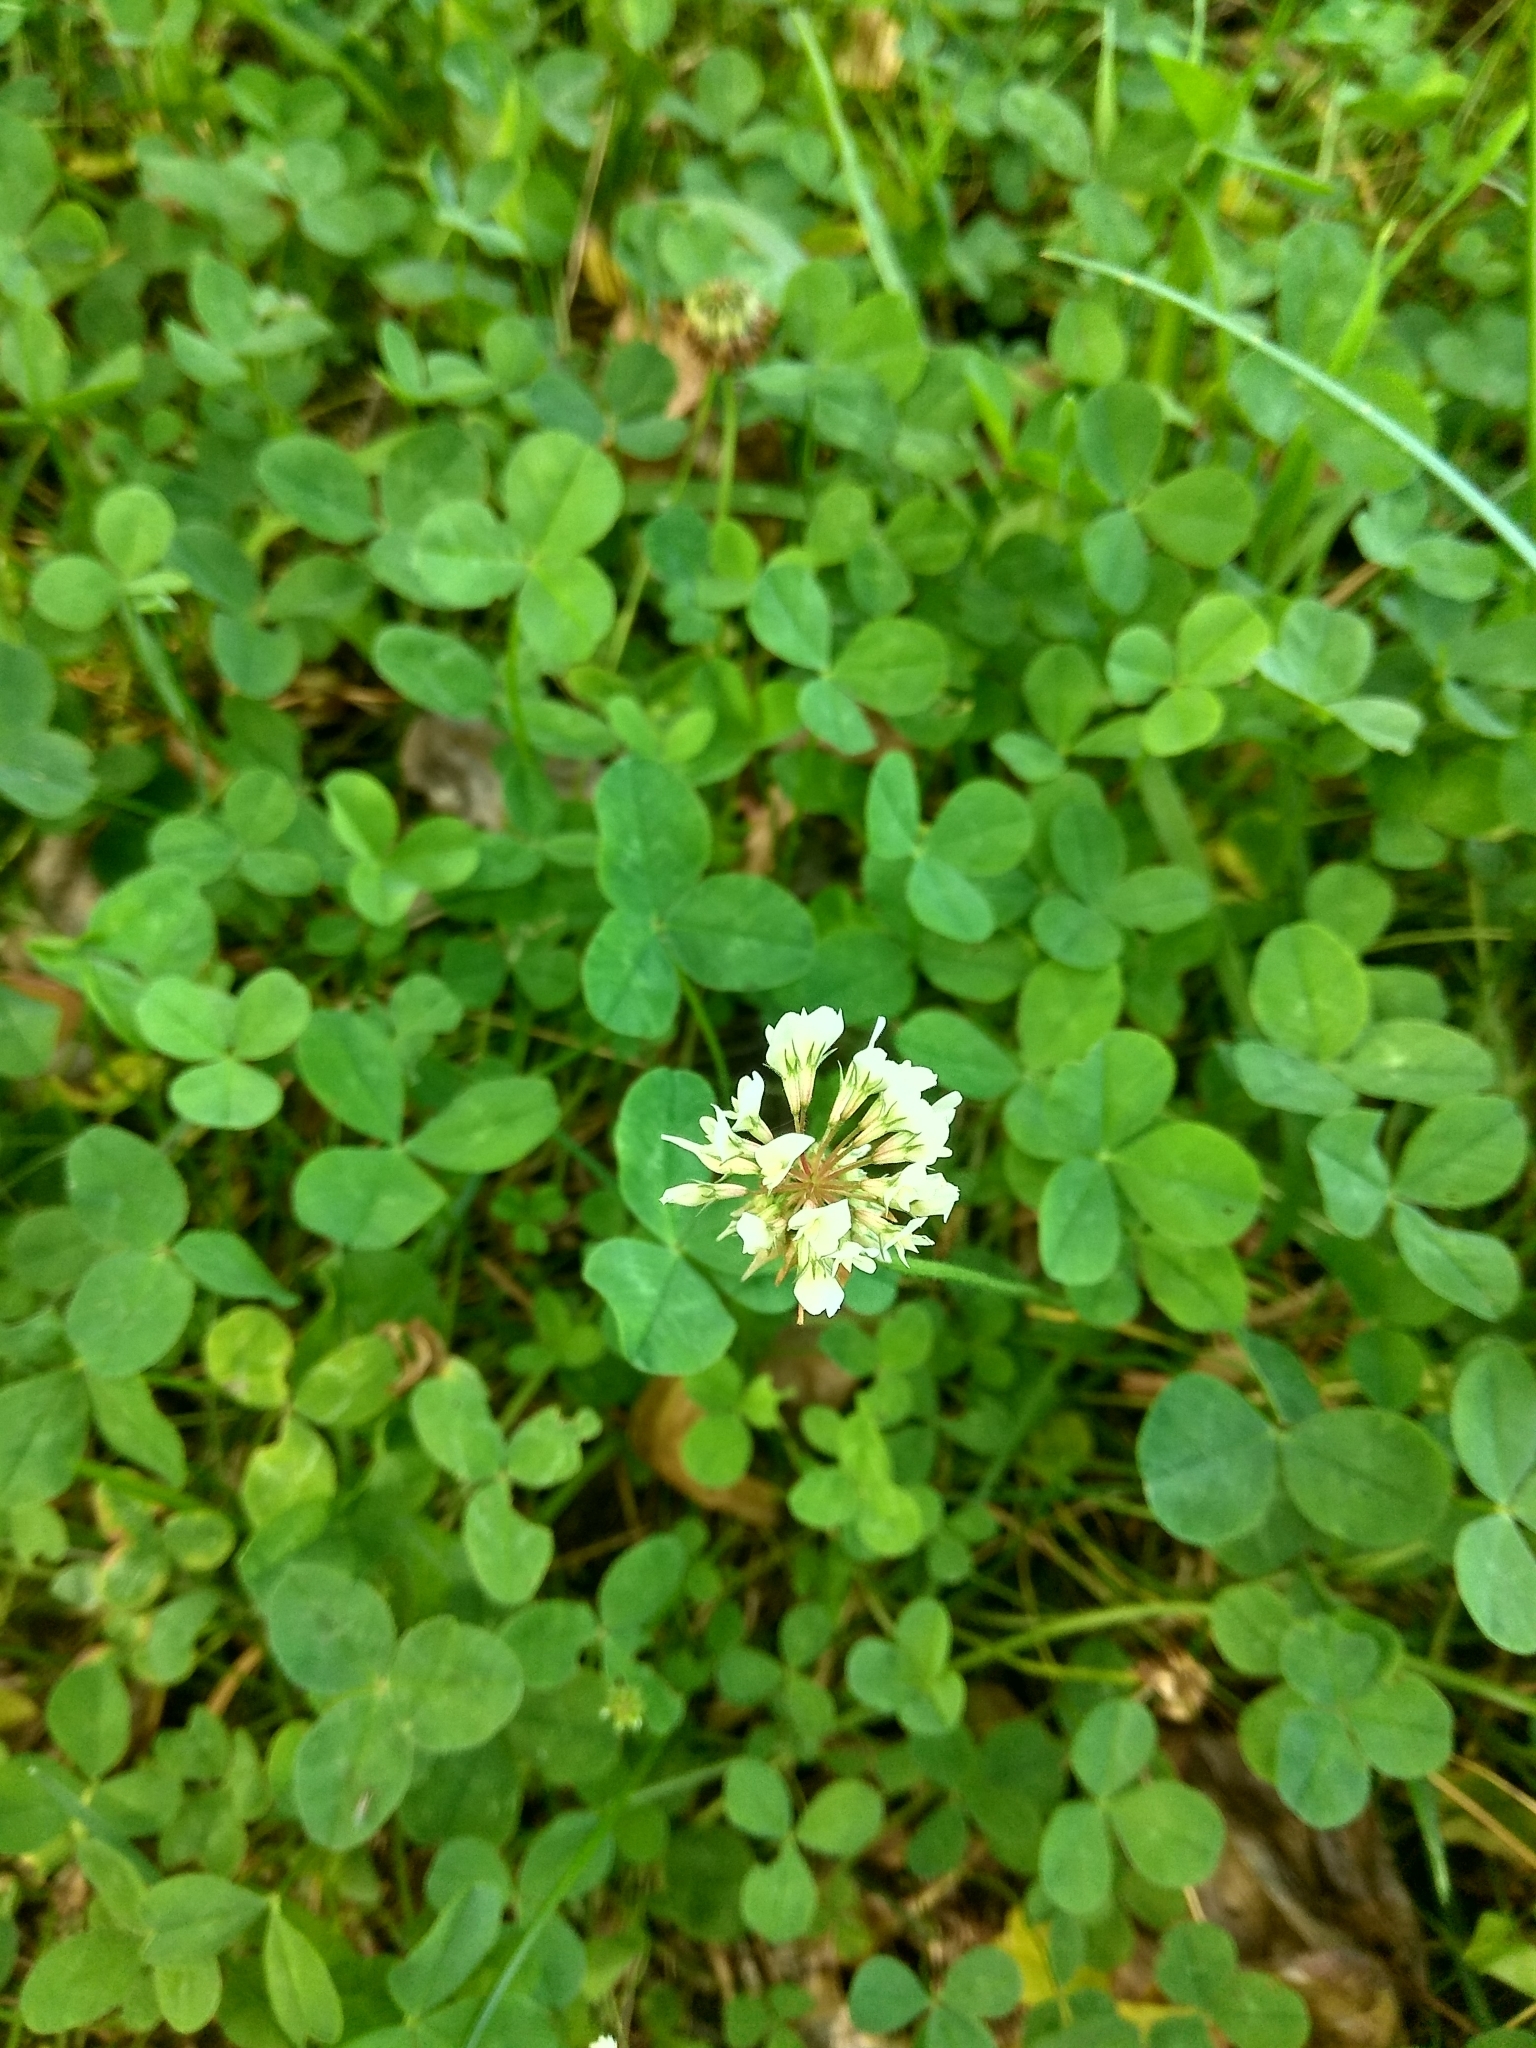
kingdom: Plantae
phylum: Tracheophyta
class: Magnoliopsida
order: Fabales
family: Fabaceae
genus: Trifolium
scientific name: Trifolium repens
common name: White clover
